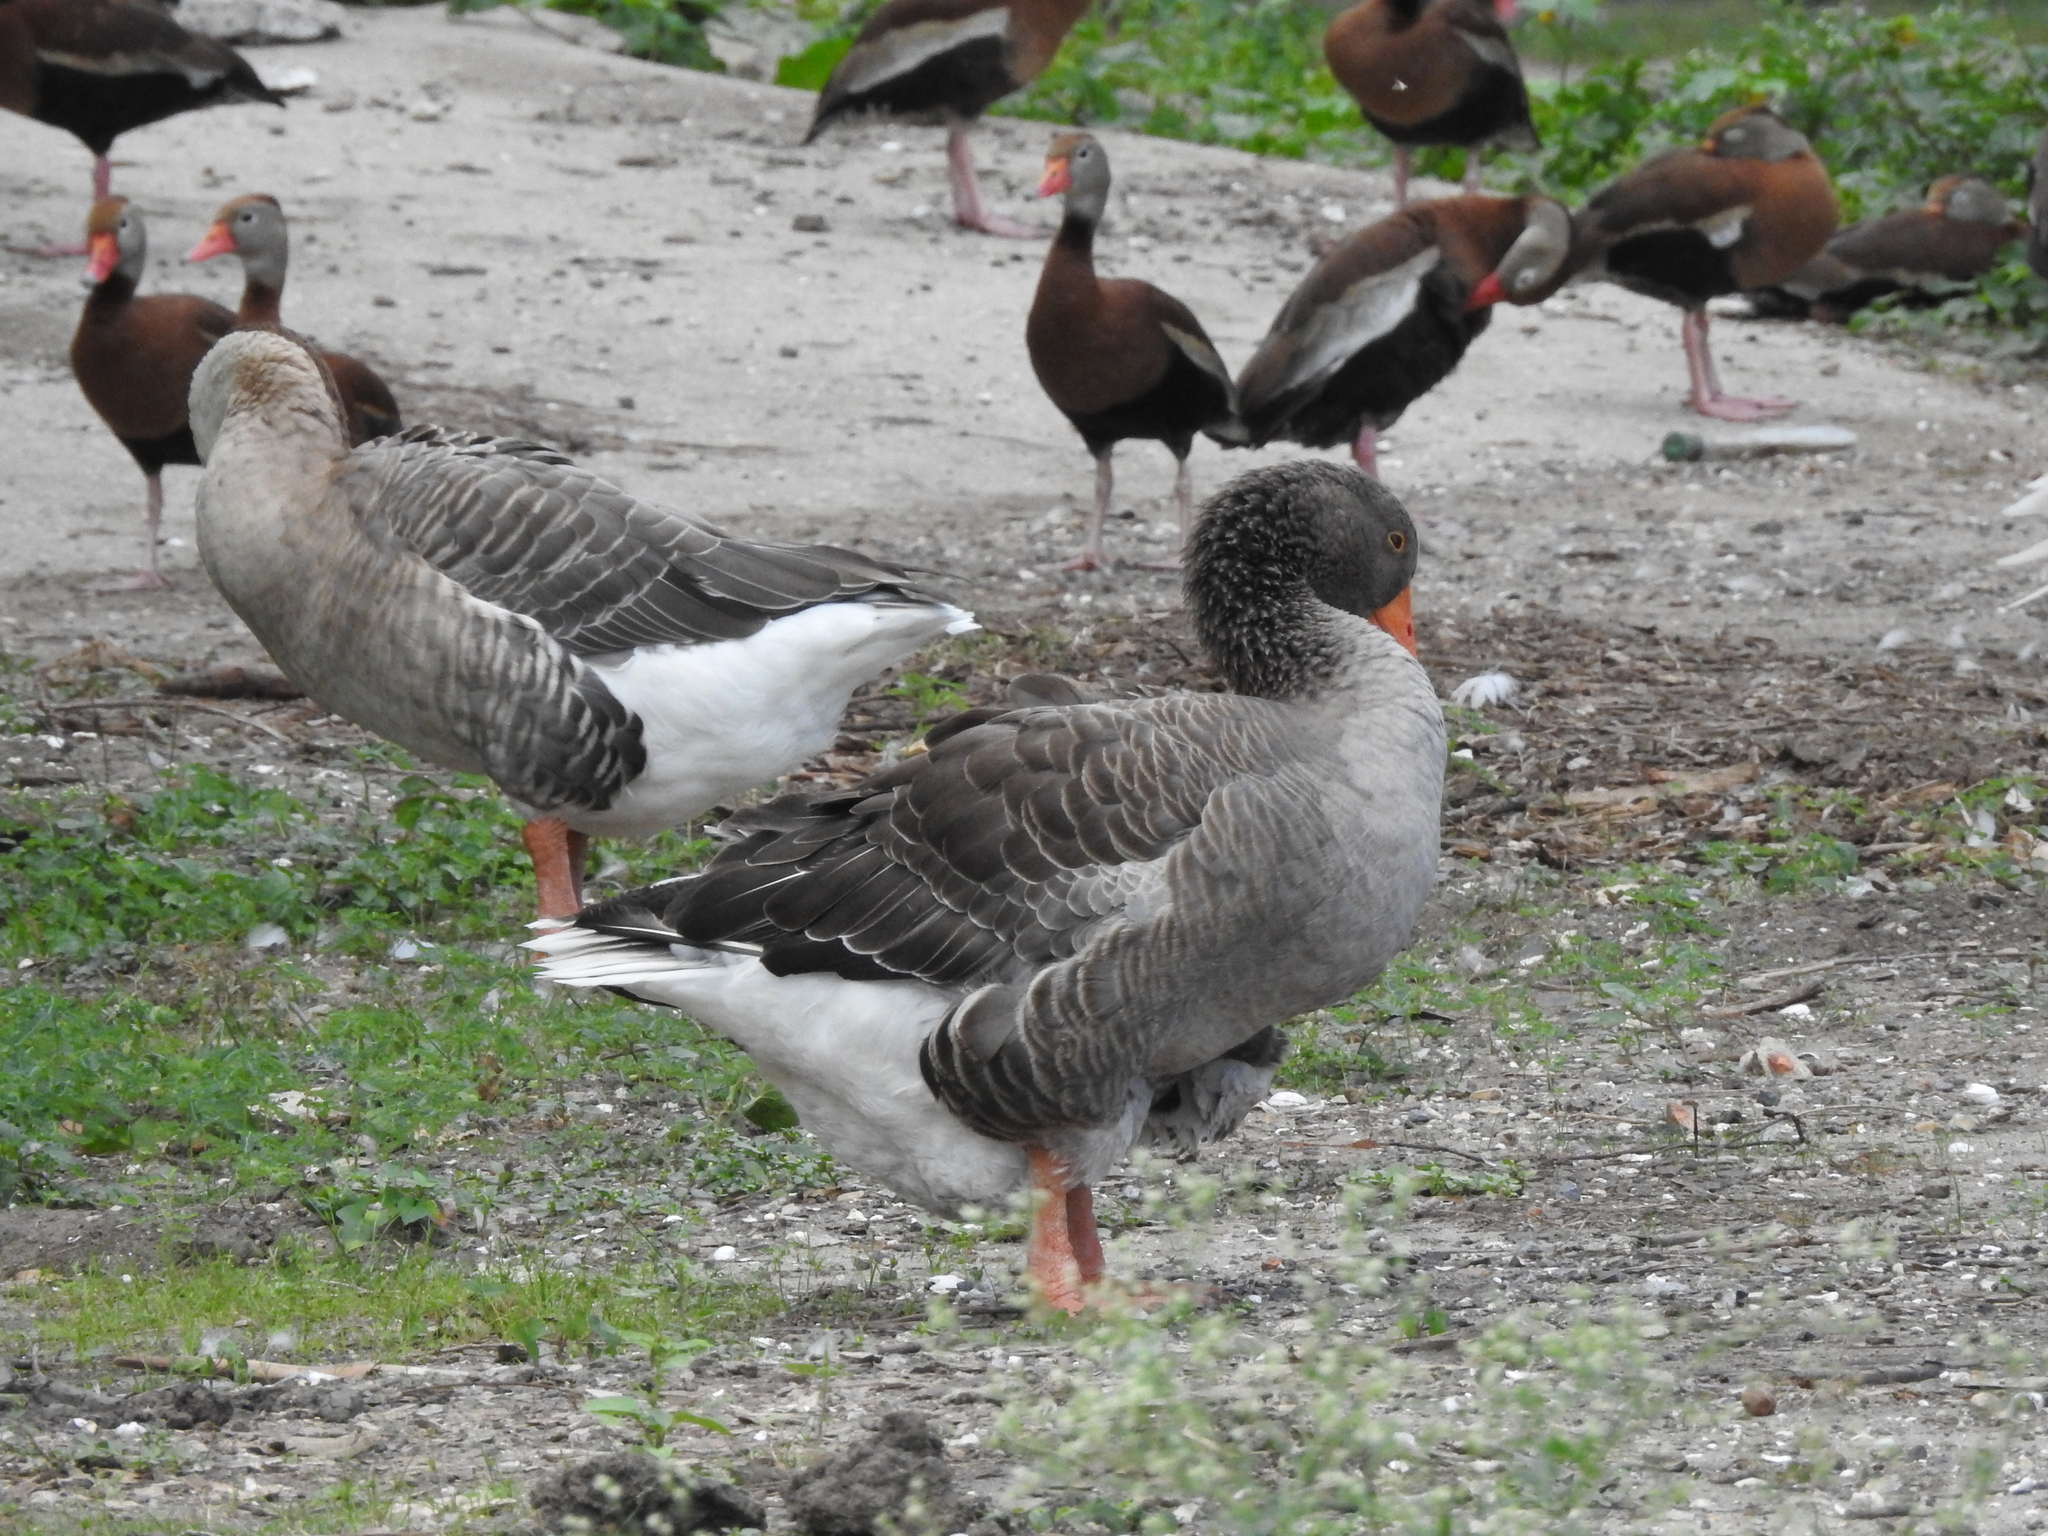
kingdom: Animalia
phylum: Chordata
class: Aves
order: Anseriformes
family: Anatidae
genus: Anser
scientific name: Anser
